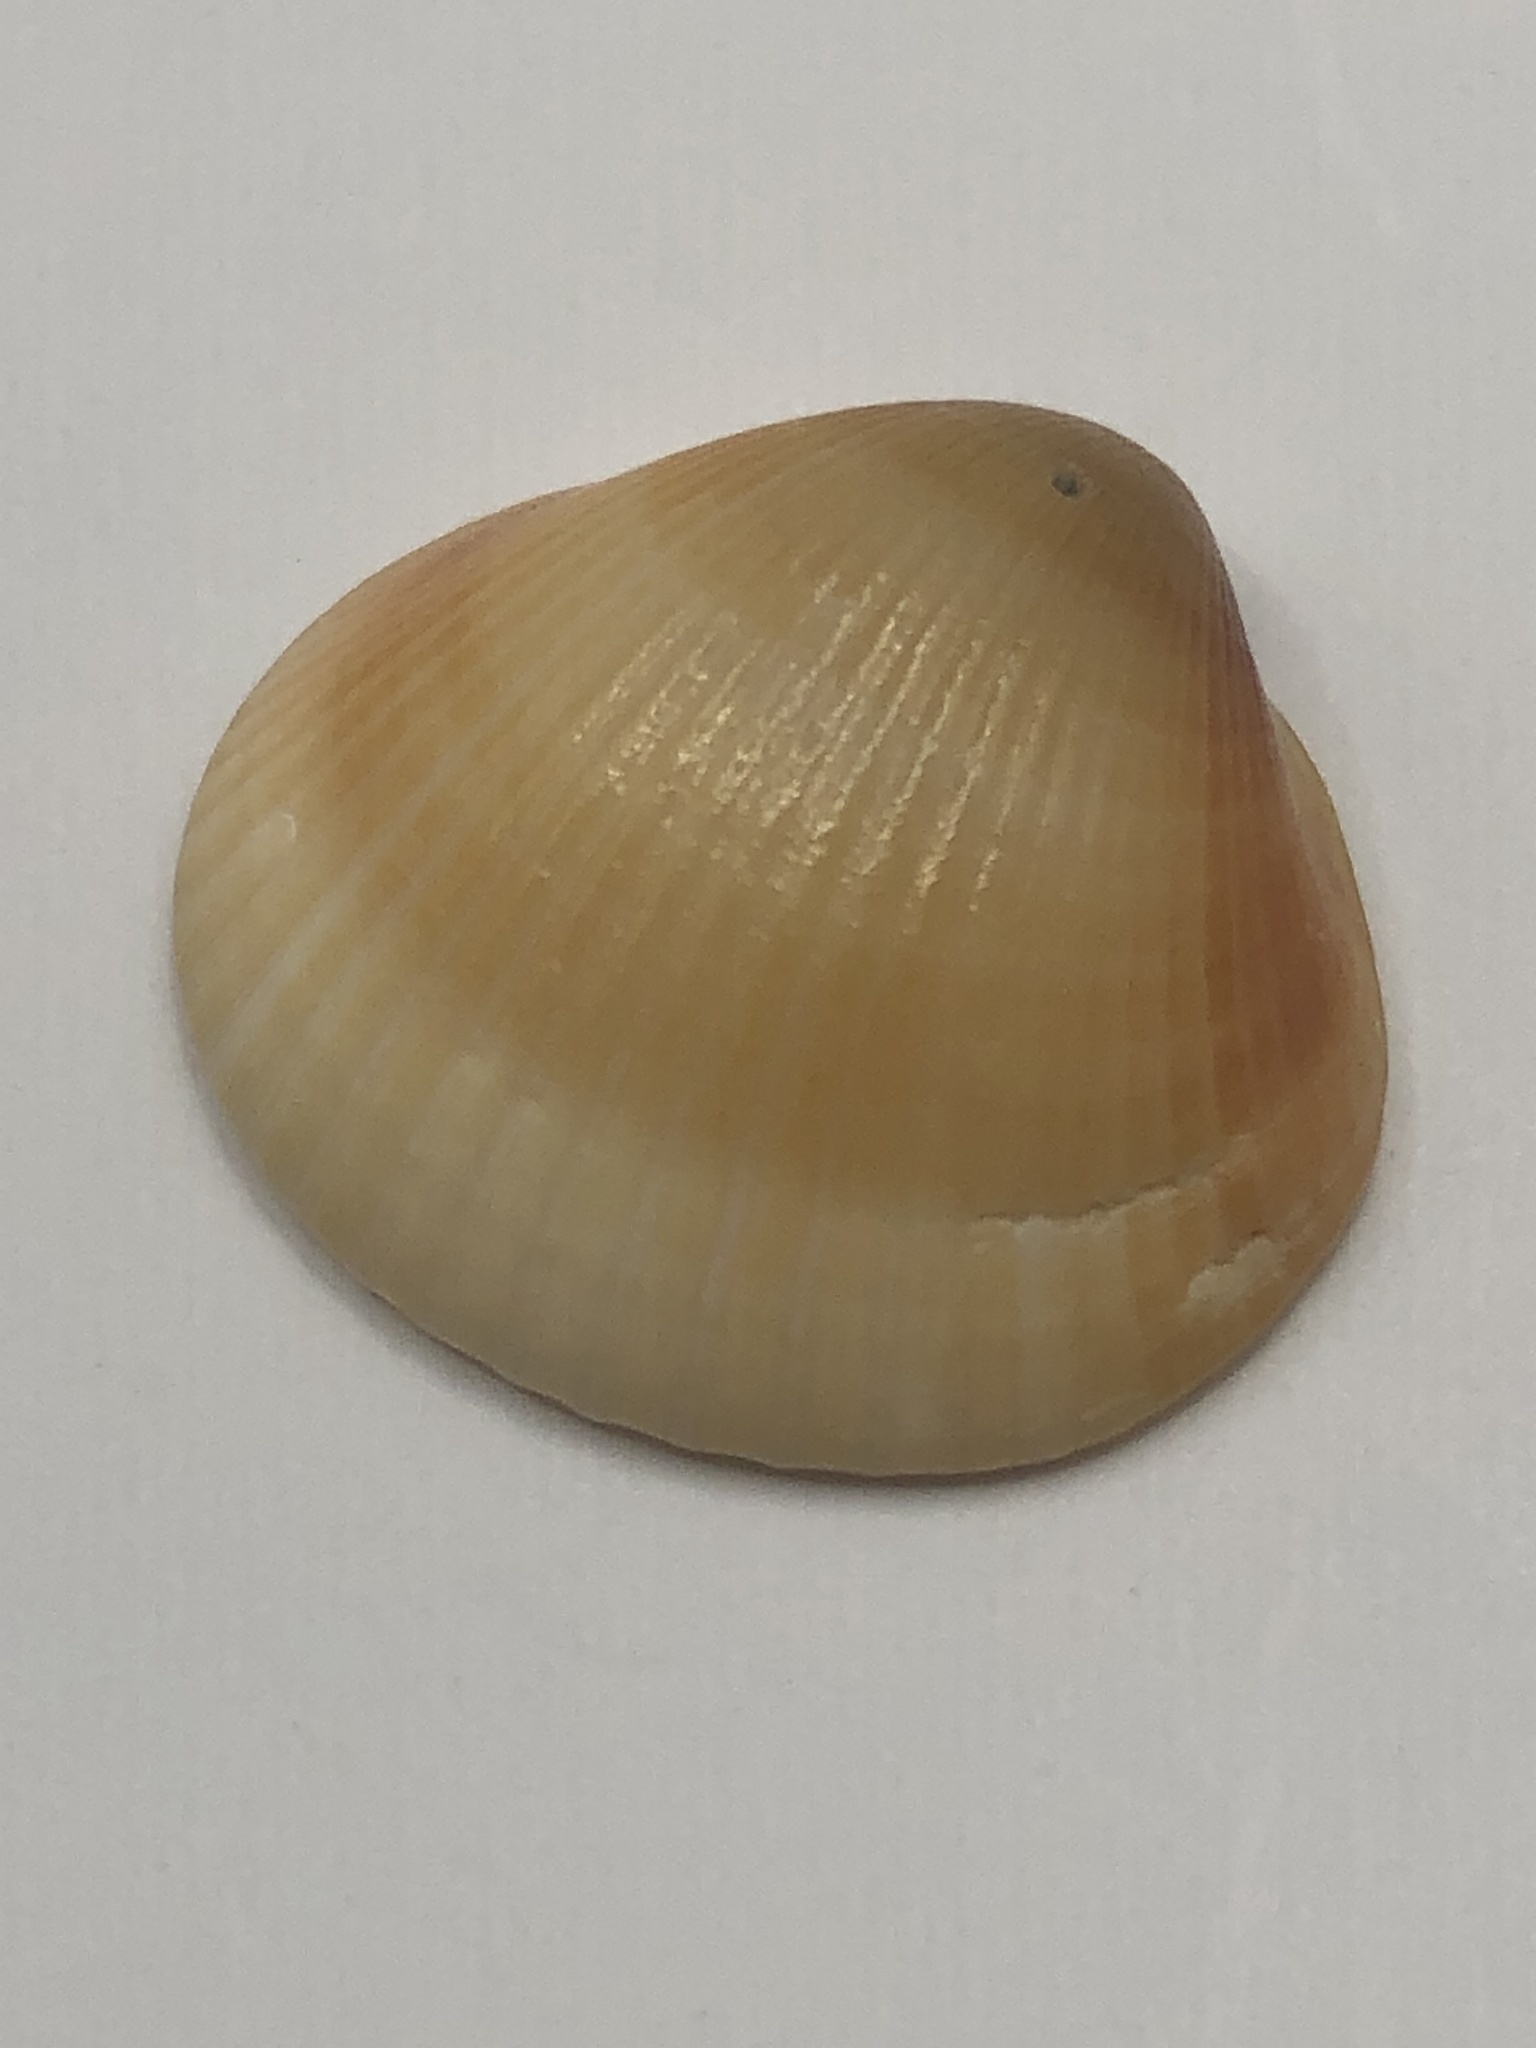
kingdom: Animalia
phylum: Mollusca
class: Bivalvia
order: Arcida
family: Glycymerididae
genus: Glycymeris
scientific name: Glycymeris spectralis
